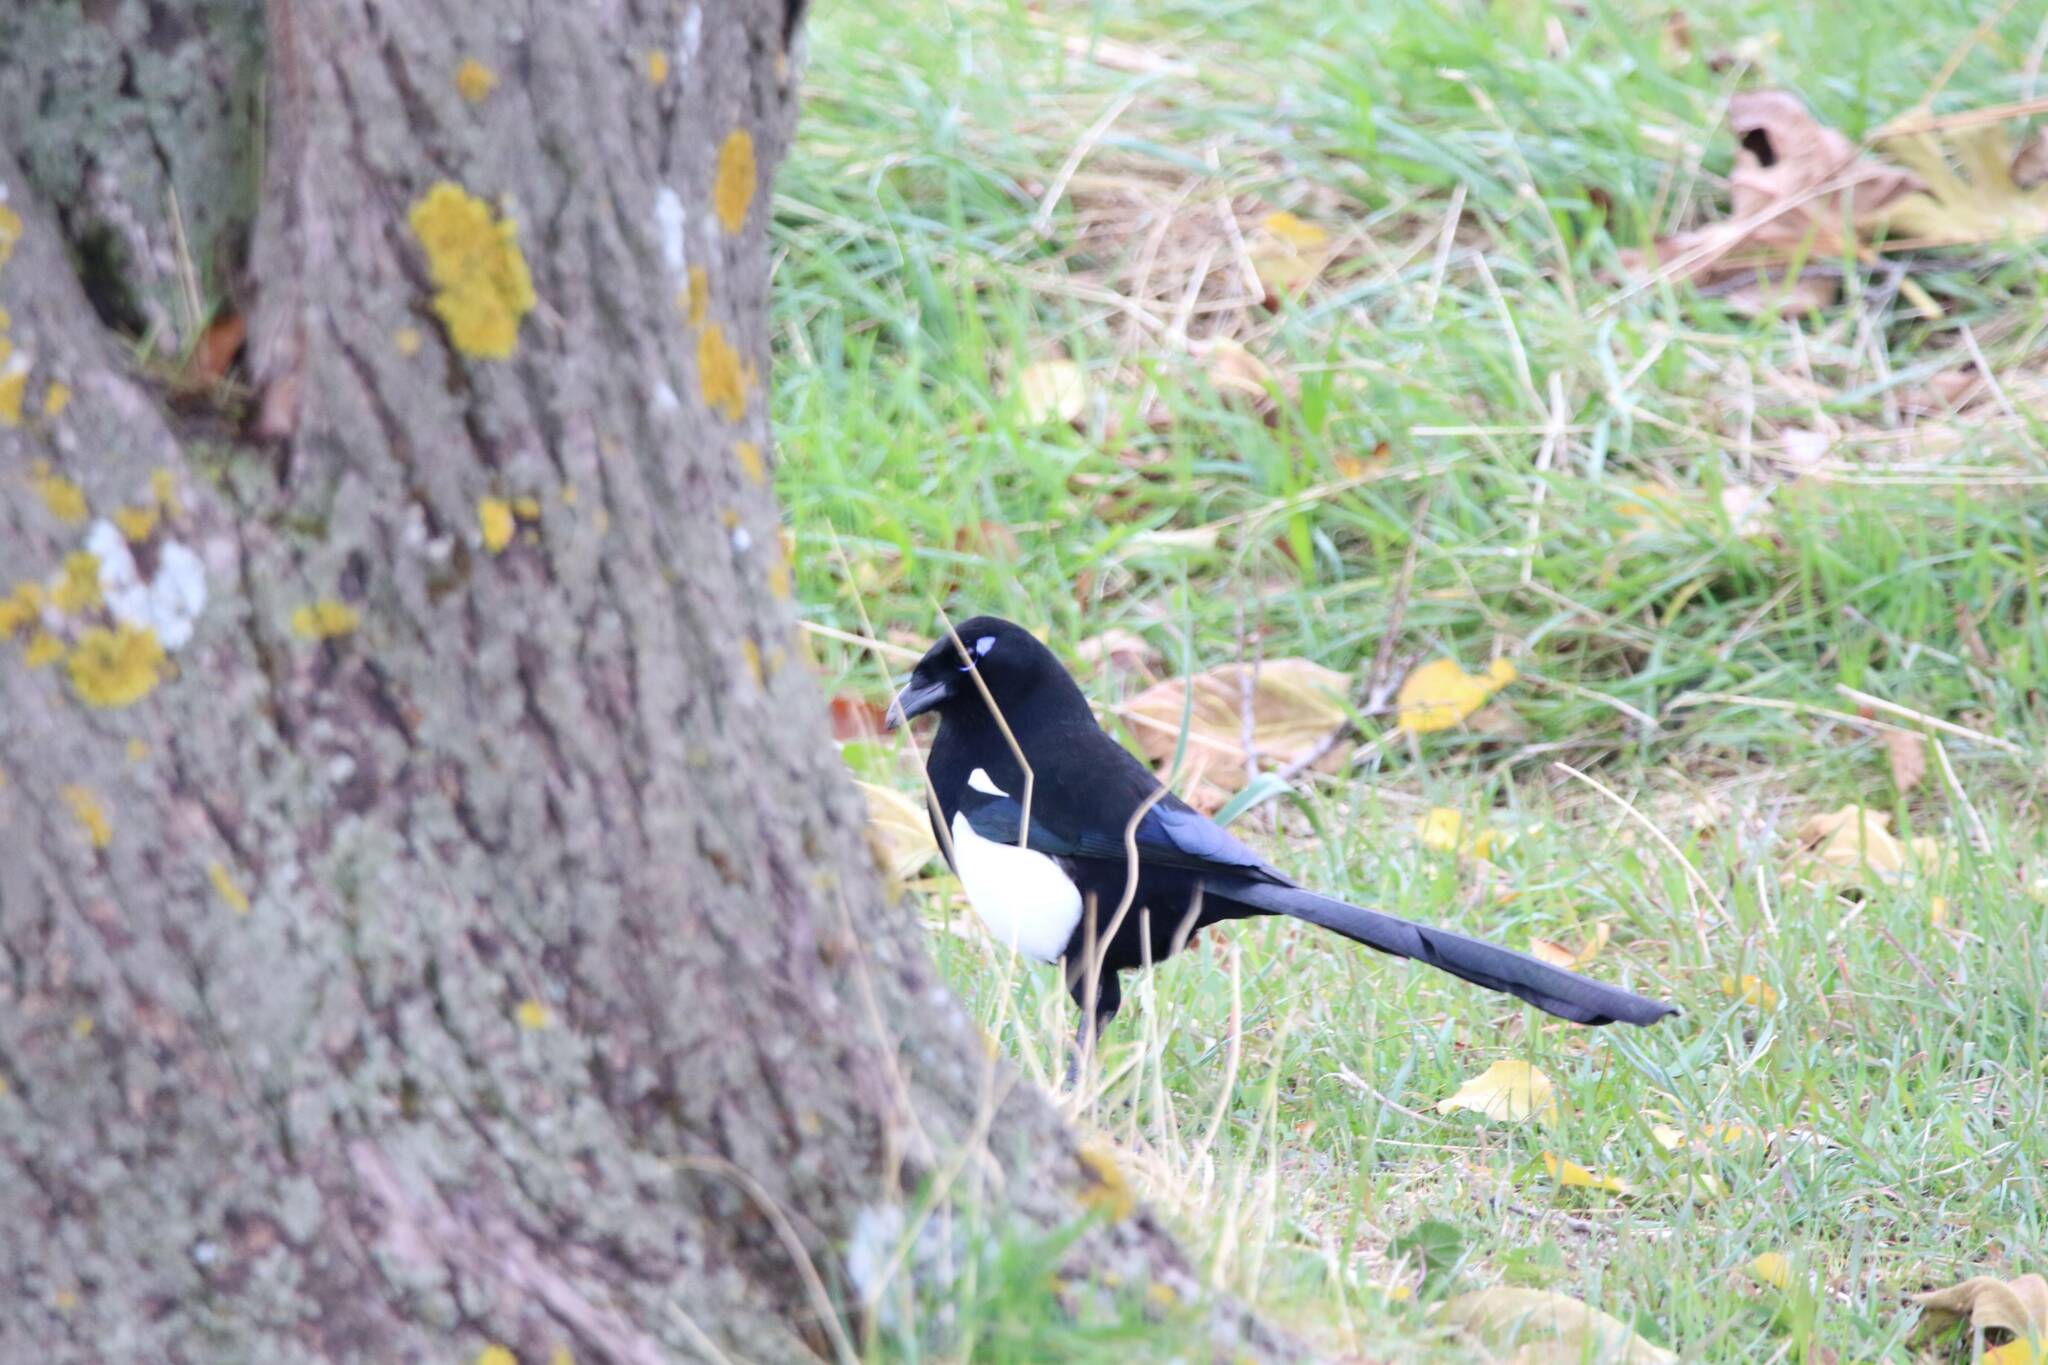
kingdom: Animalia
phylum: Chordata
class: Aves
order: Passeriformes
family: Corvidae
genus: Pica
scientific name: Pica mauritanica
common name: Maghreb magpie
